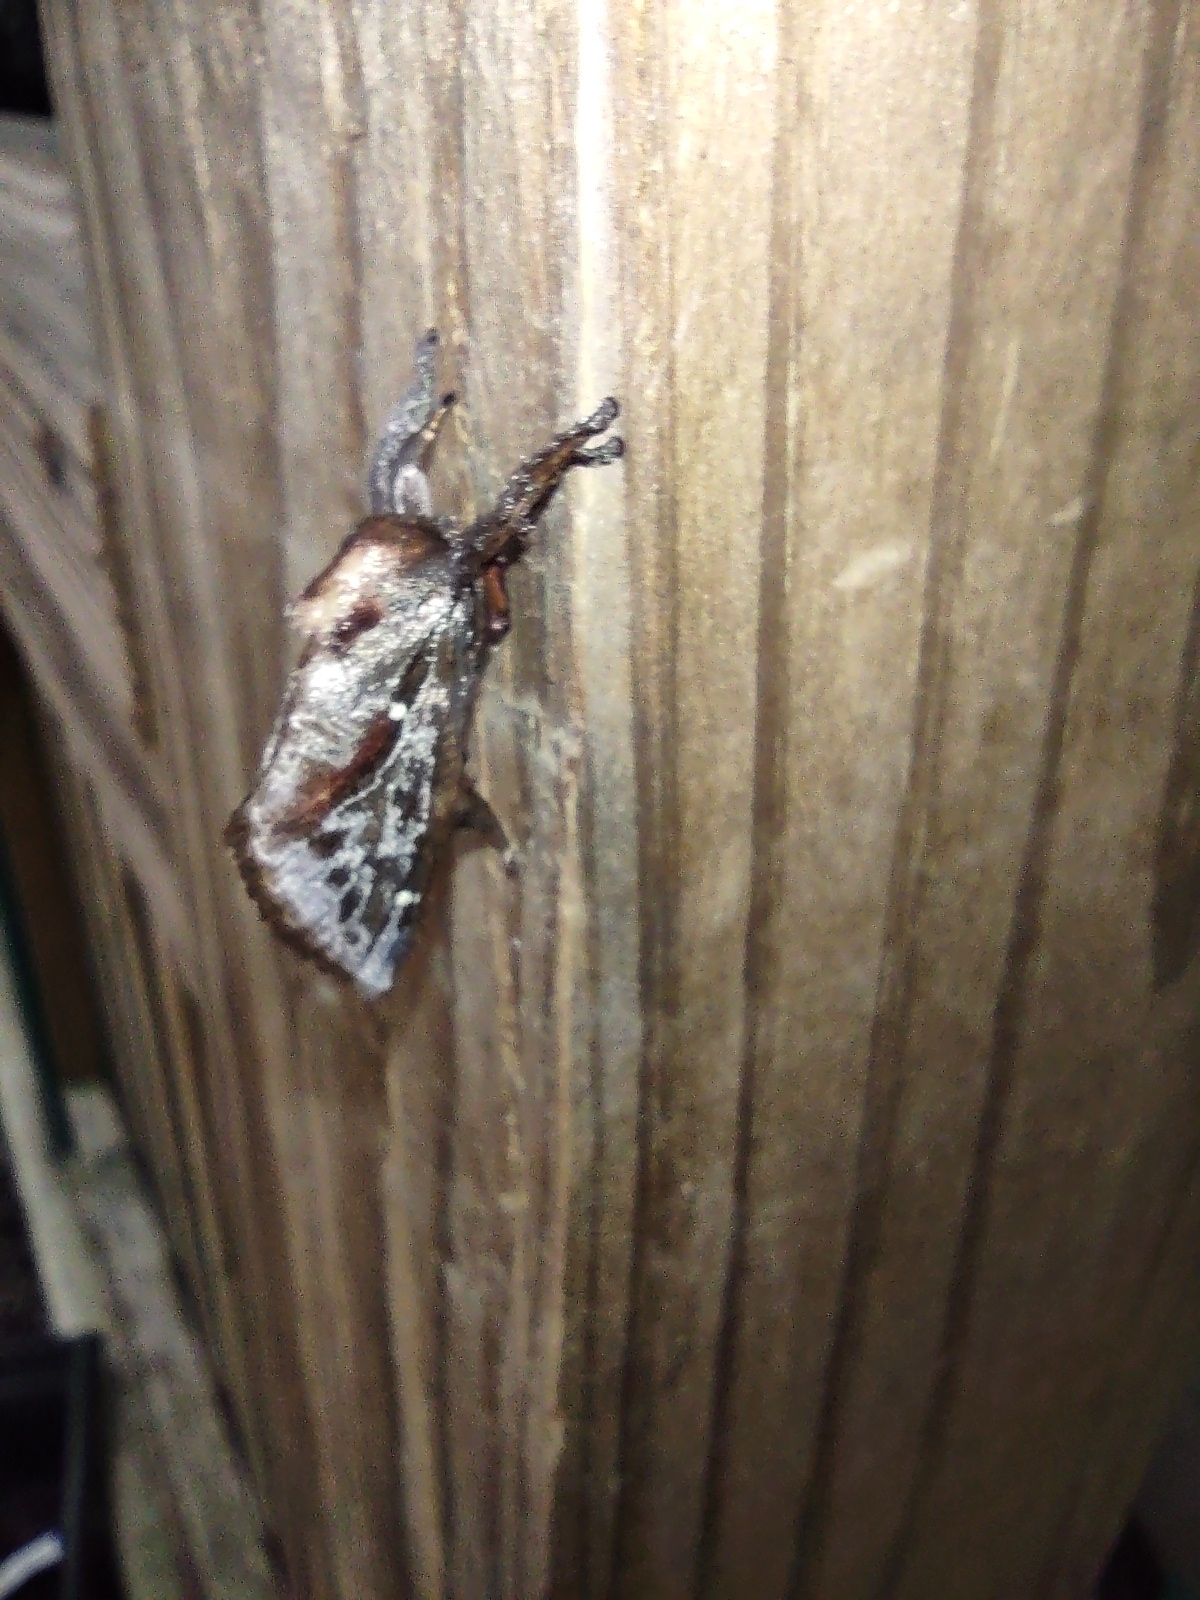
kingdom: Animalia
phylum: Arthropoda
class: Insecta
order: Lepidoptera
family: Limacodidae
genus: Acharia
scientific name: Acharia stimulea
